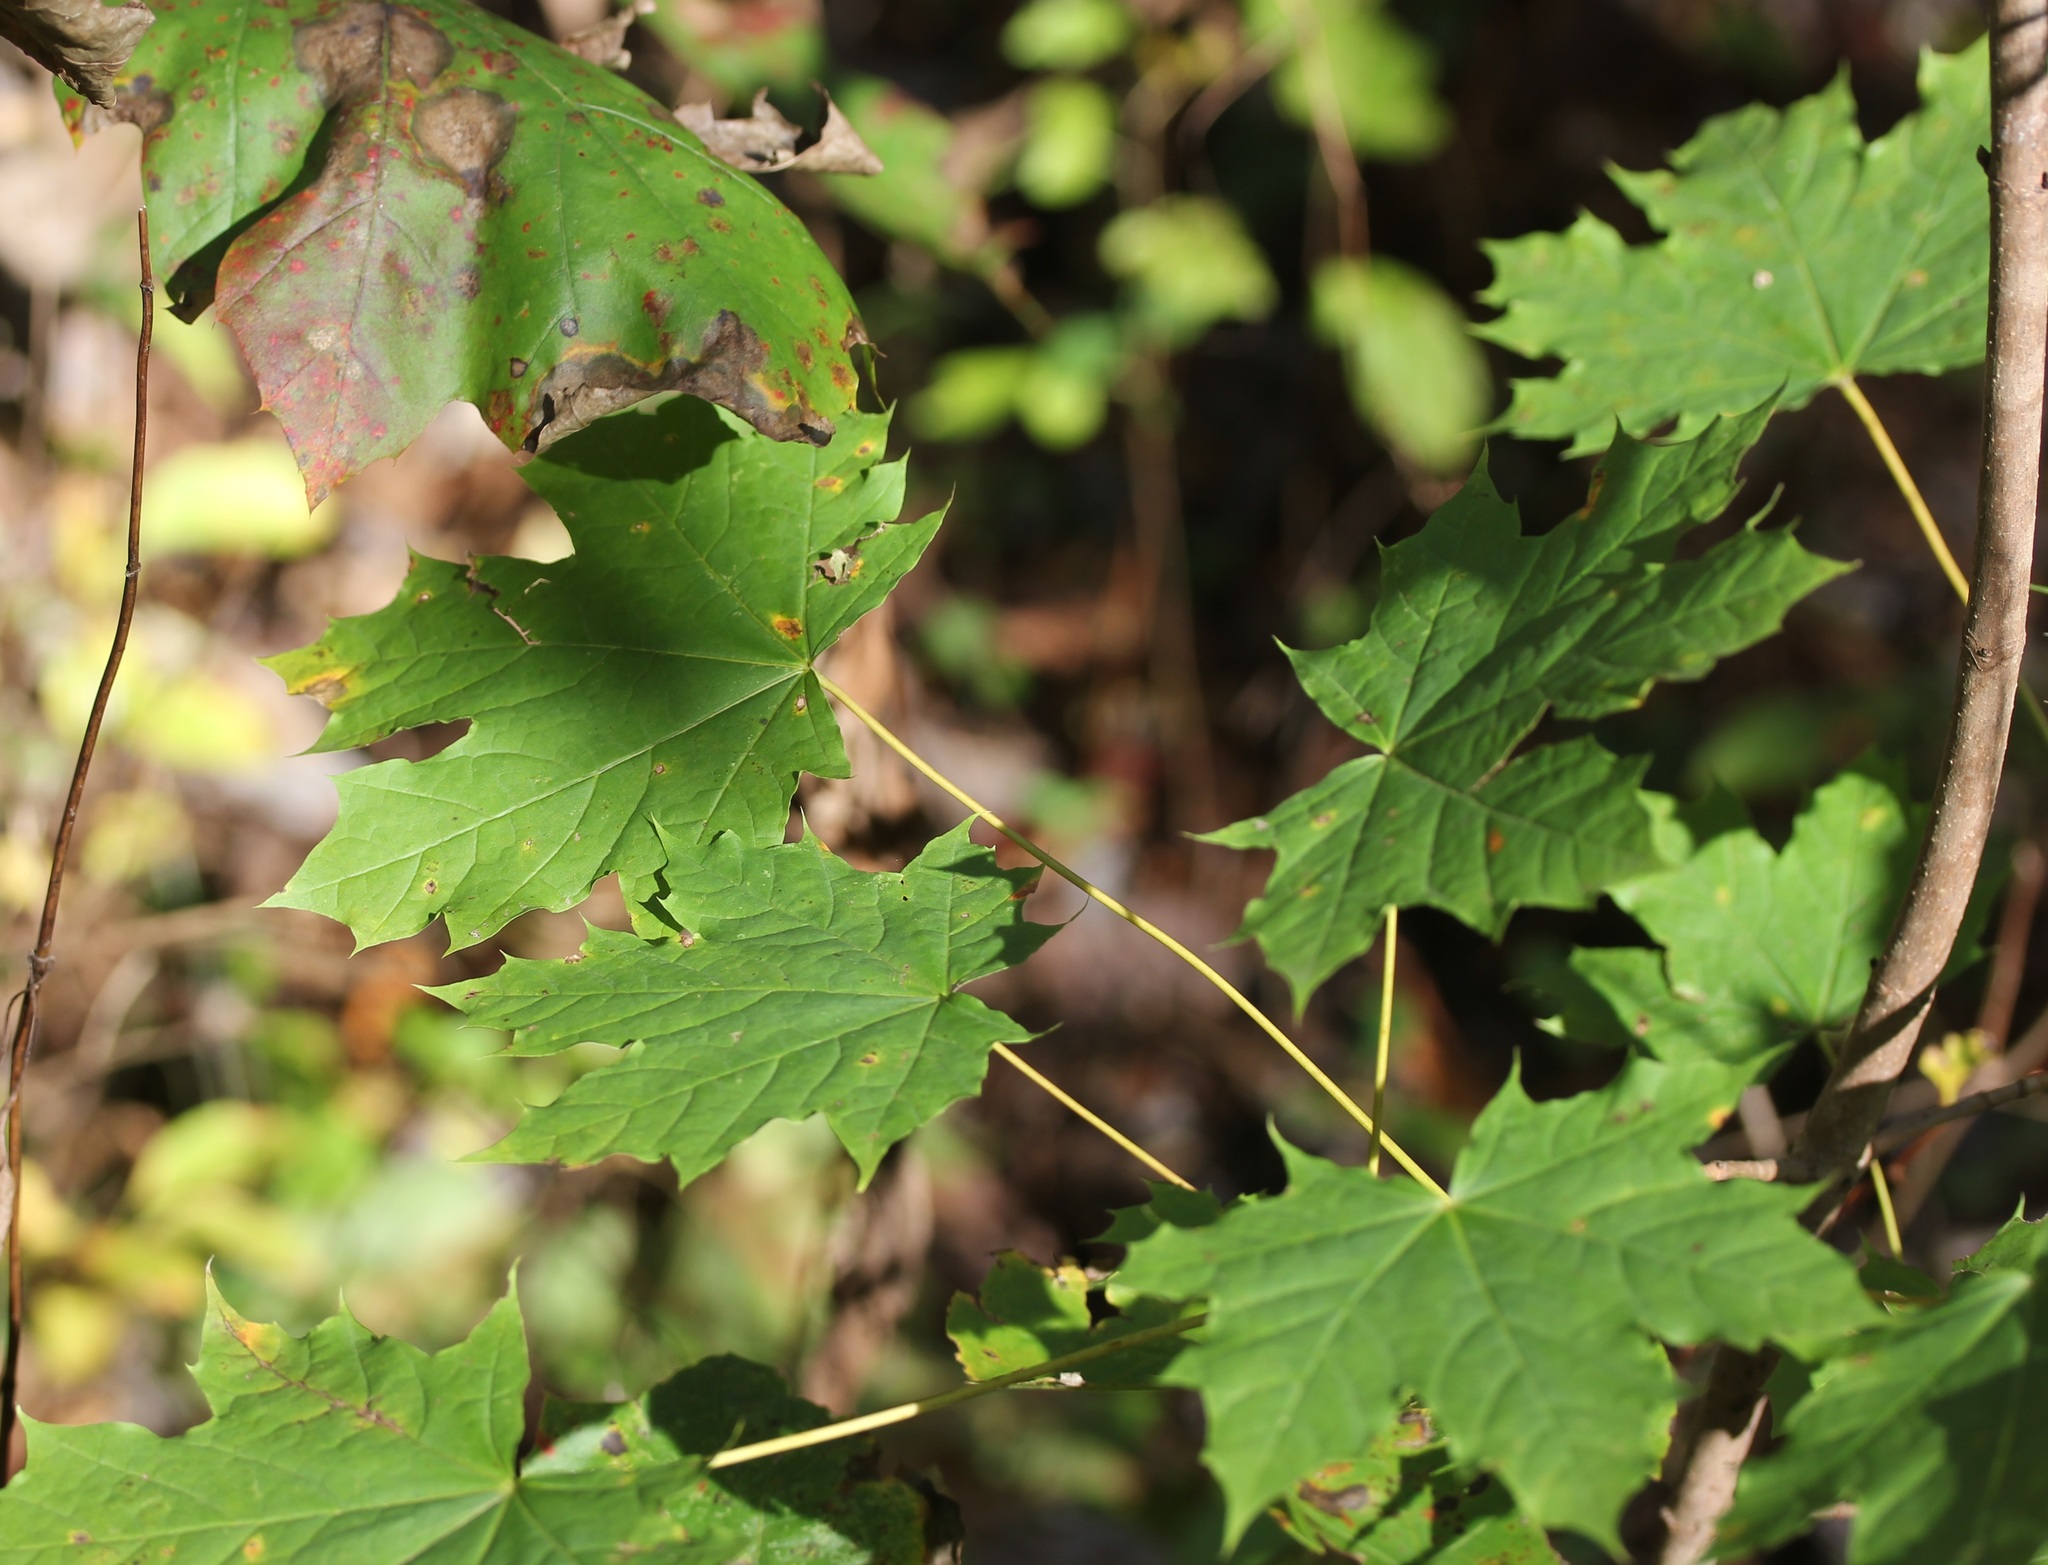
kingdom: Plantae
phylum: Tracheophyta
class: Magnoliopsida
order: Sapindales
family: Sapindaceae
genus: Acer
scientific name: Acer platanoides
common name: Norway maple
